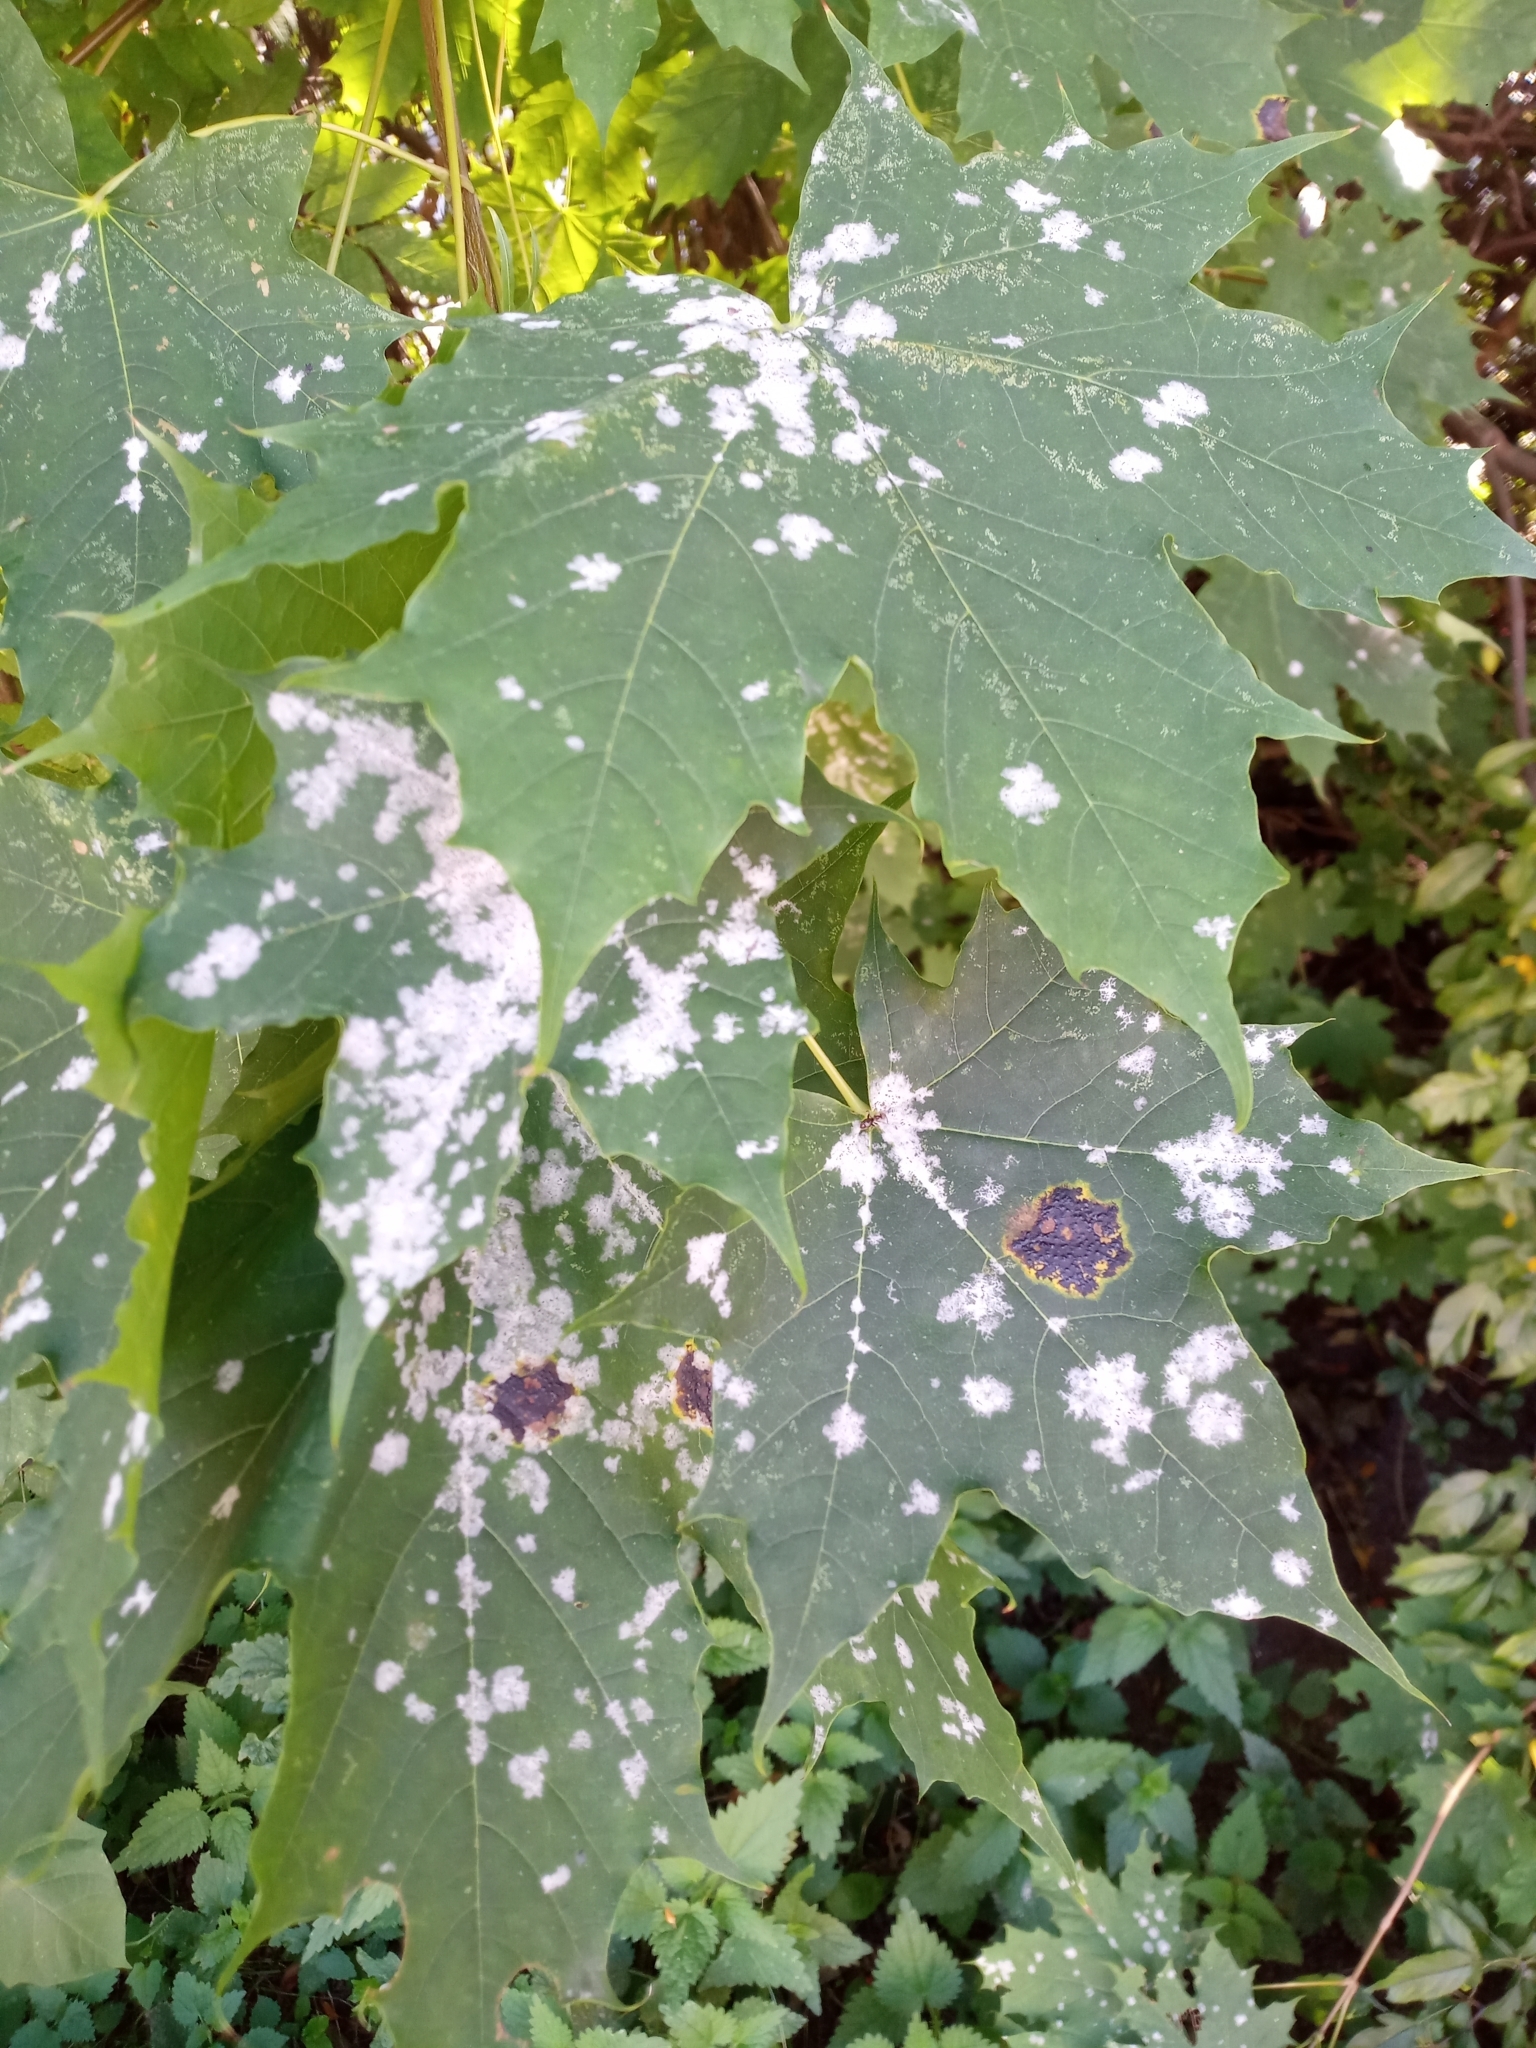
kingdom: Fungi
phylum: Ascomycota
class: Leotiomycetes
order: Rhytismatales
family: Rhytismataceae
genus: Rhytisma
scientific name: Rhytisma acerinum
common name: European tar spot
